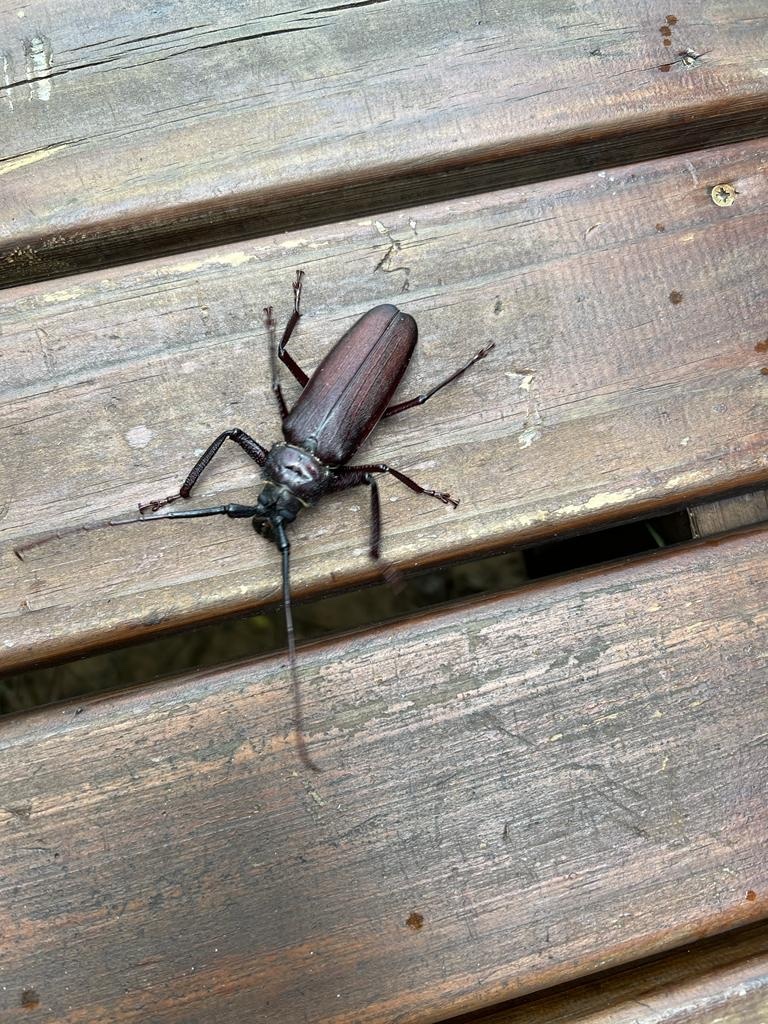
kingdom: Animalia
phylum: Arthropoda
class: Insecta
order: Coleoptera
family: Cerambycidae
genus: Macrotoma
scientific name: Macrotoma natala
